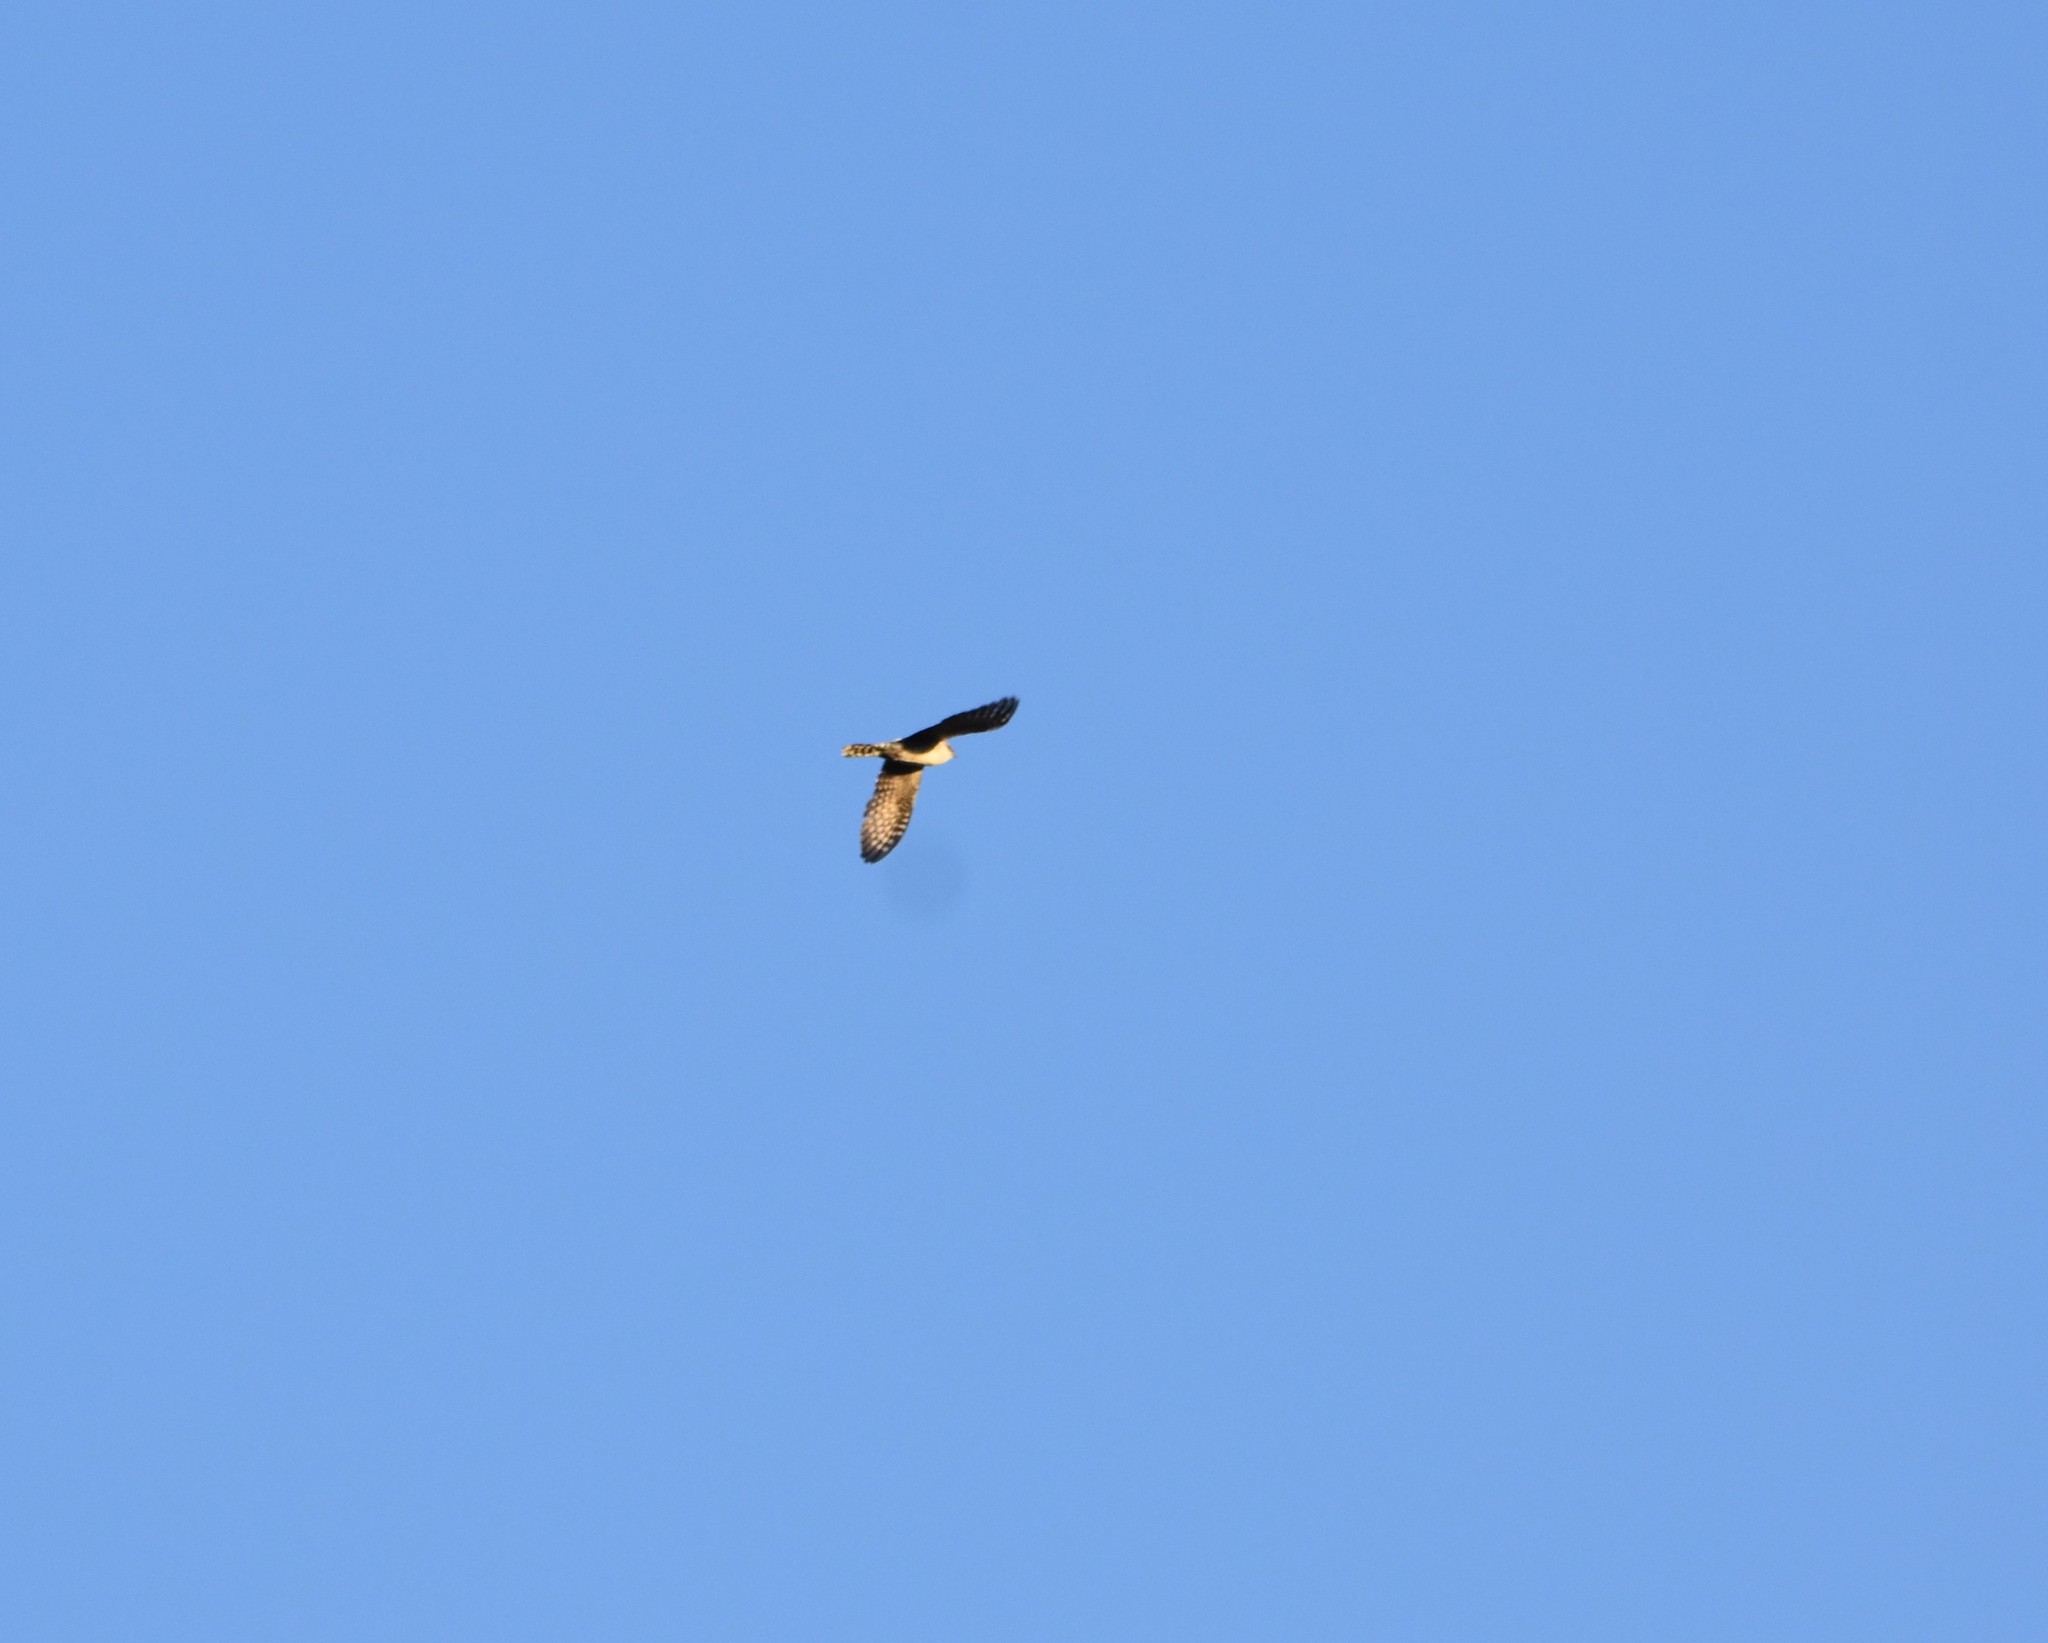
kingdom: Animalia
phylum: Chordata
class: Aves
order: Cuculiformes
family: Cuculidae
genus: Chrysococcyx
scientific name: Chrysococcyx caprius
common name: Diederik cuckoo
